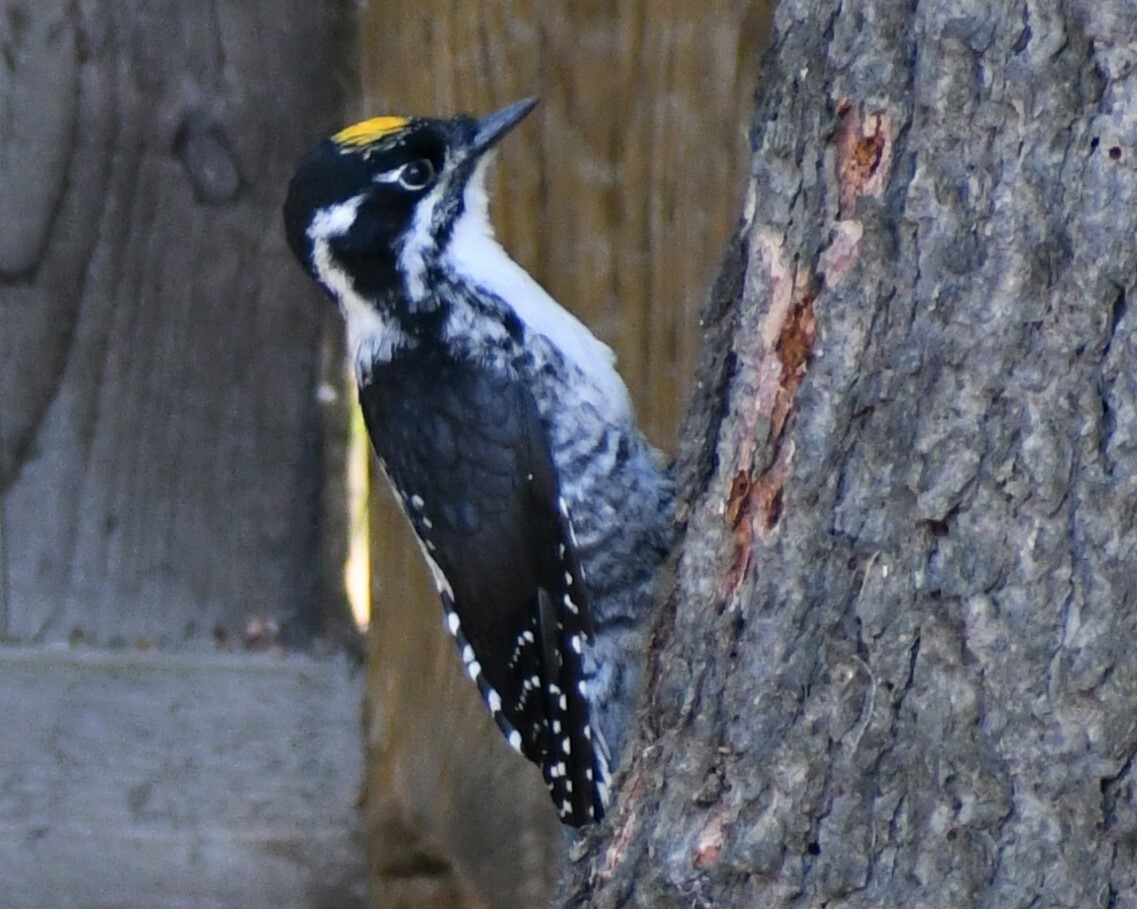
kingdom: Animalia
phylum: Chordata
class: Aves
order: Piciformes
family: Picidae
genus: Picoides
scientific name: Picoides dorsalis
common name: American three-toed woodpecker
